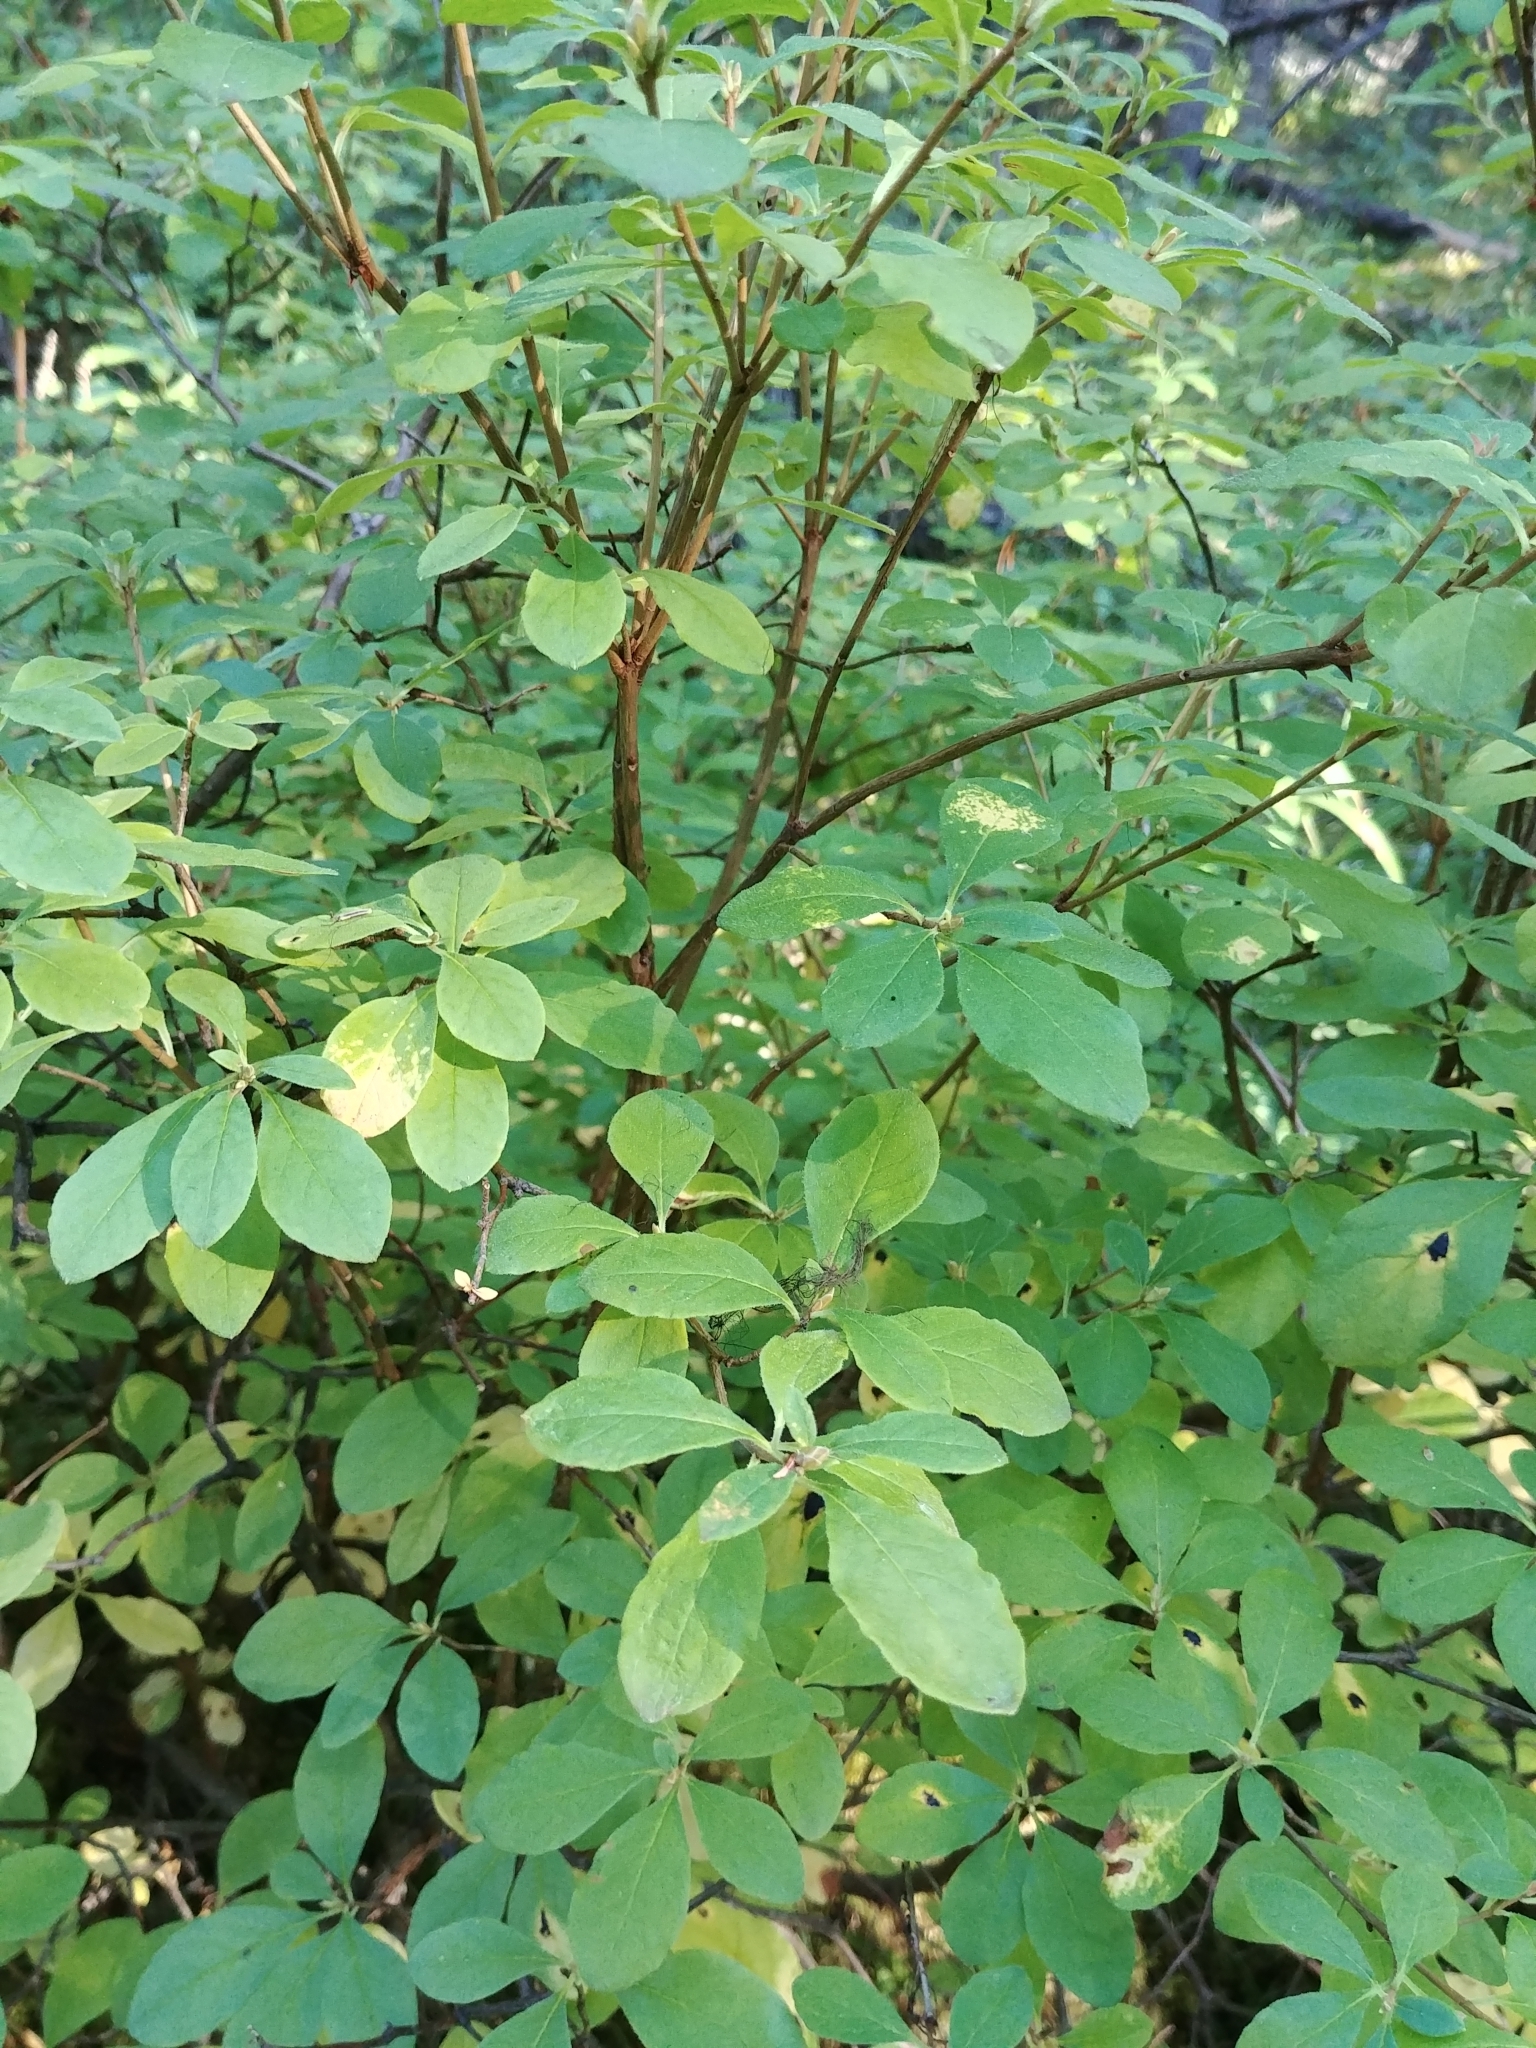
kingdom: Plantae
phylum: Tracheophyta
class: Magnoliopsida
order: Ericales
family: Ericaceae
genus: Rhododendron
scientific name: Rhododendron menziesii
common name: Pacific menziesia
